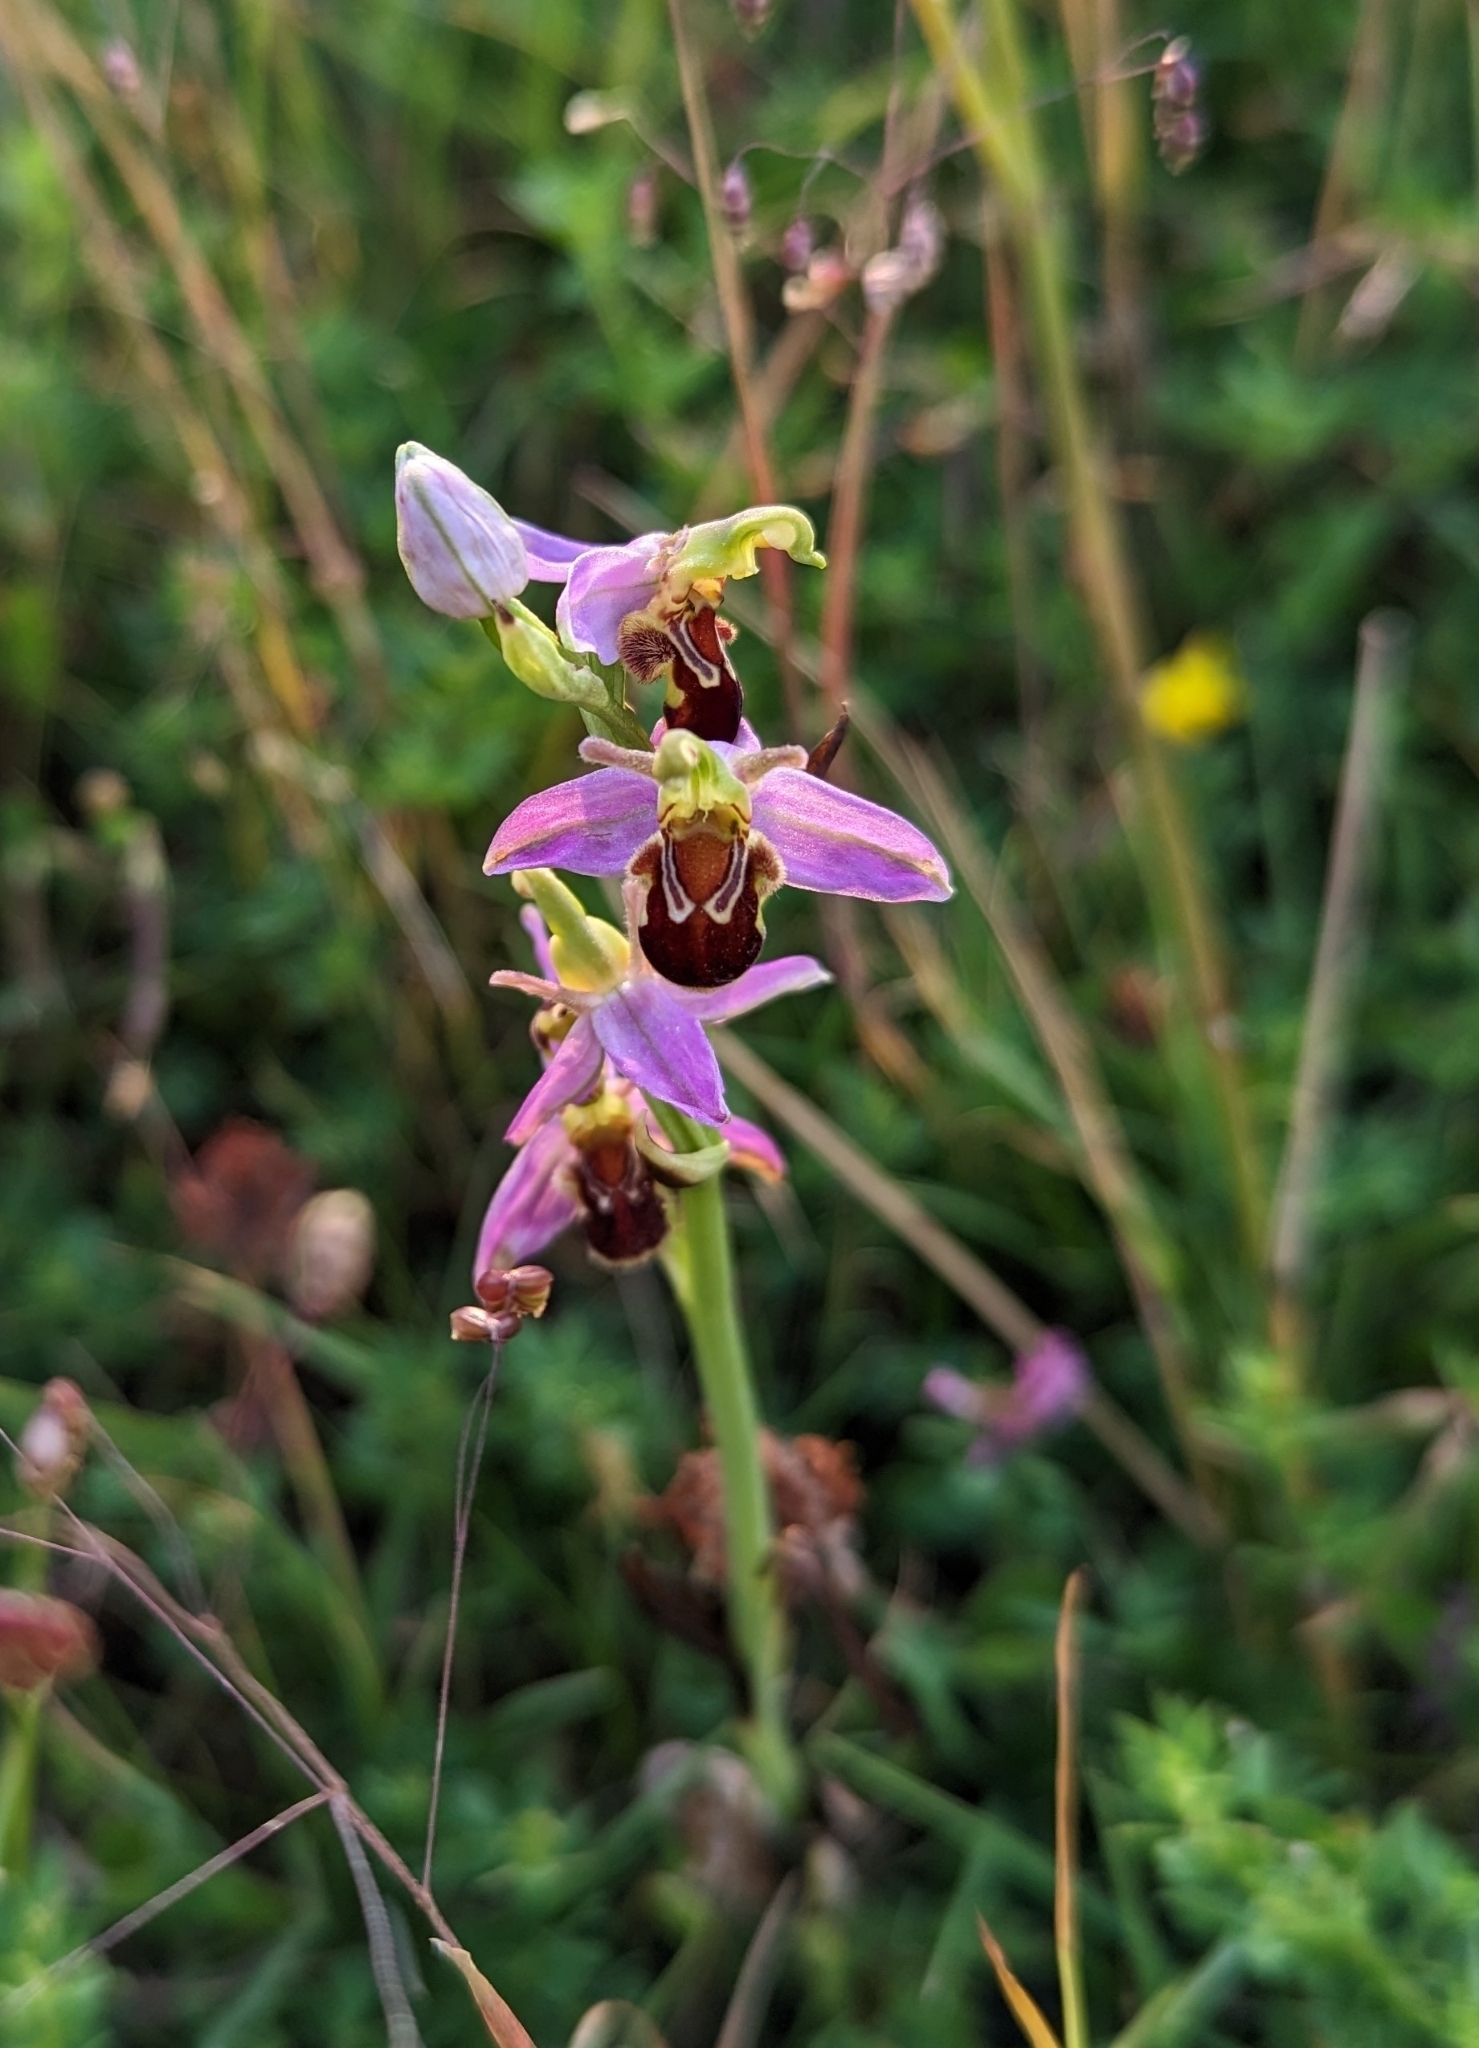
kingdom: Plantae
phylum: Tracheophyta
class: Liliopsida
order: Asparagales
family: Orchidaceae
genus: Ophrys
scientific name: Ophrys apifera
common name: Bee orchid
